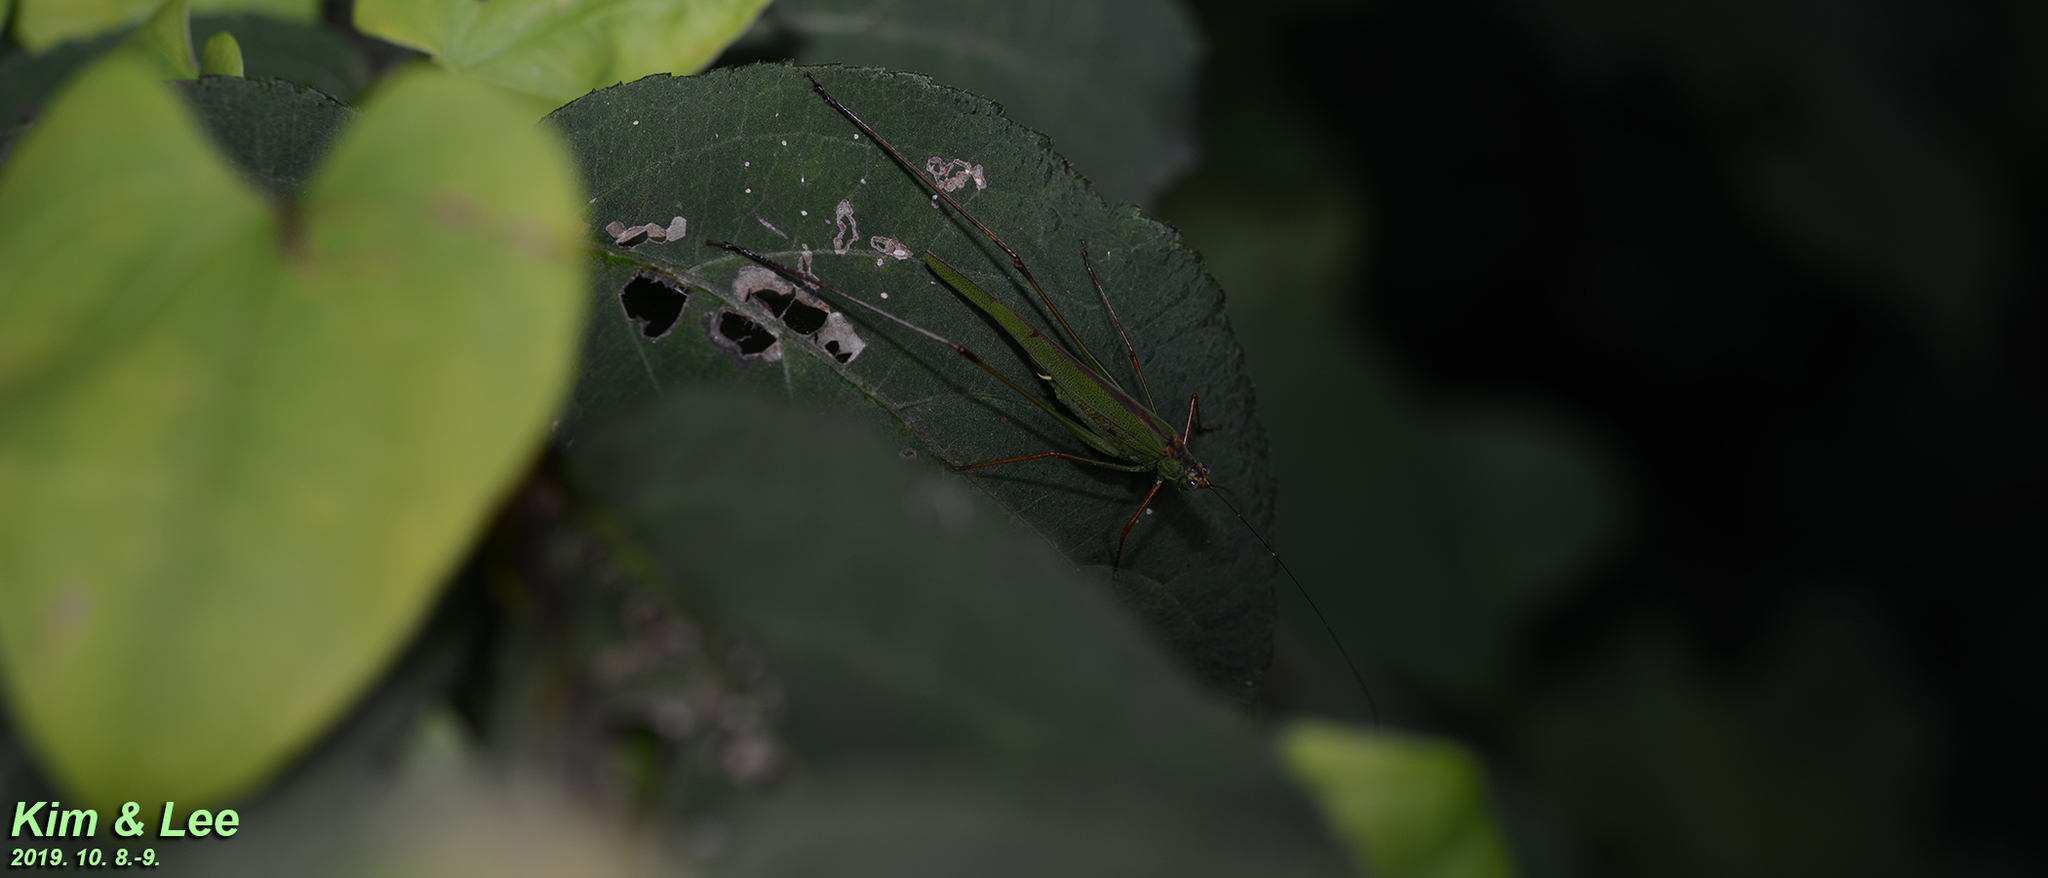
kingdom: Animalia
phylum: Arthropoda
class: Insecta
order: Orthoptera
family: Tettigoniidae
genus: Phaneroptera
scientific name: Phaneroptera nigroantennata
